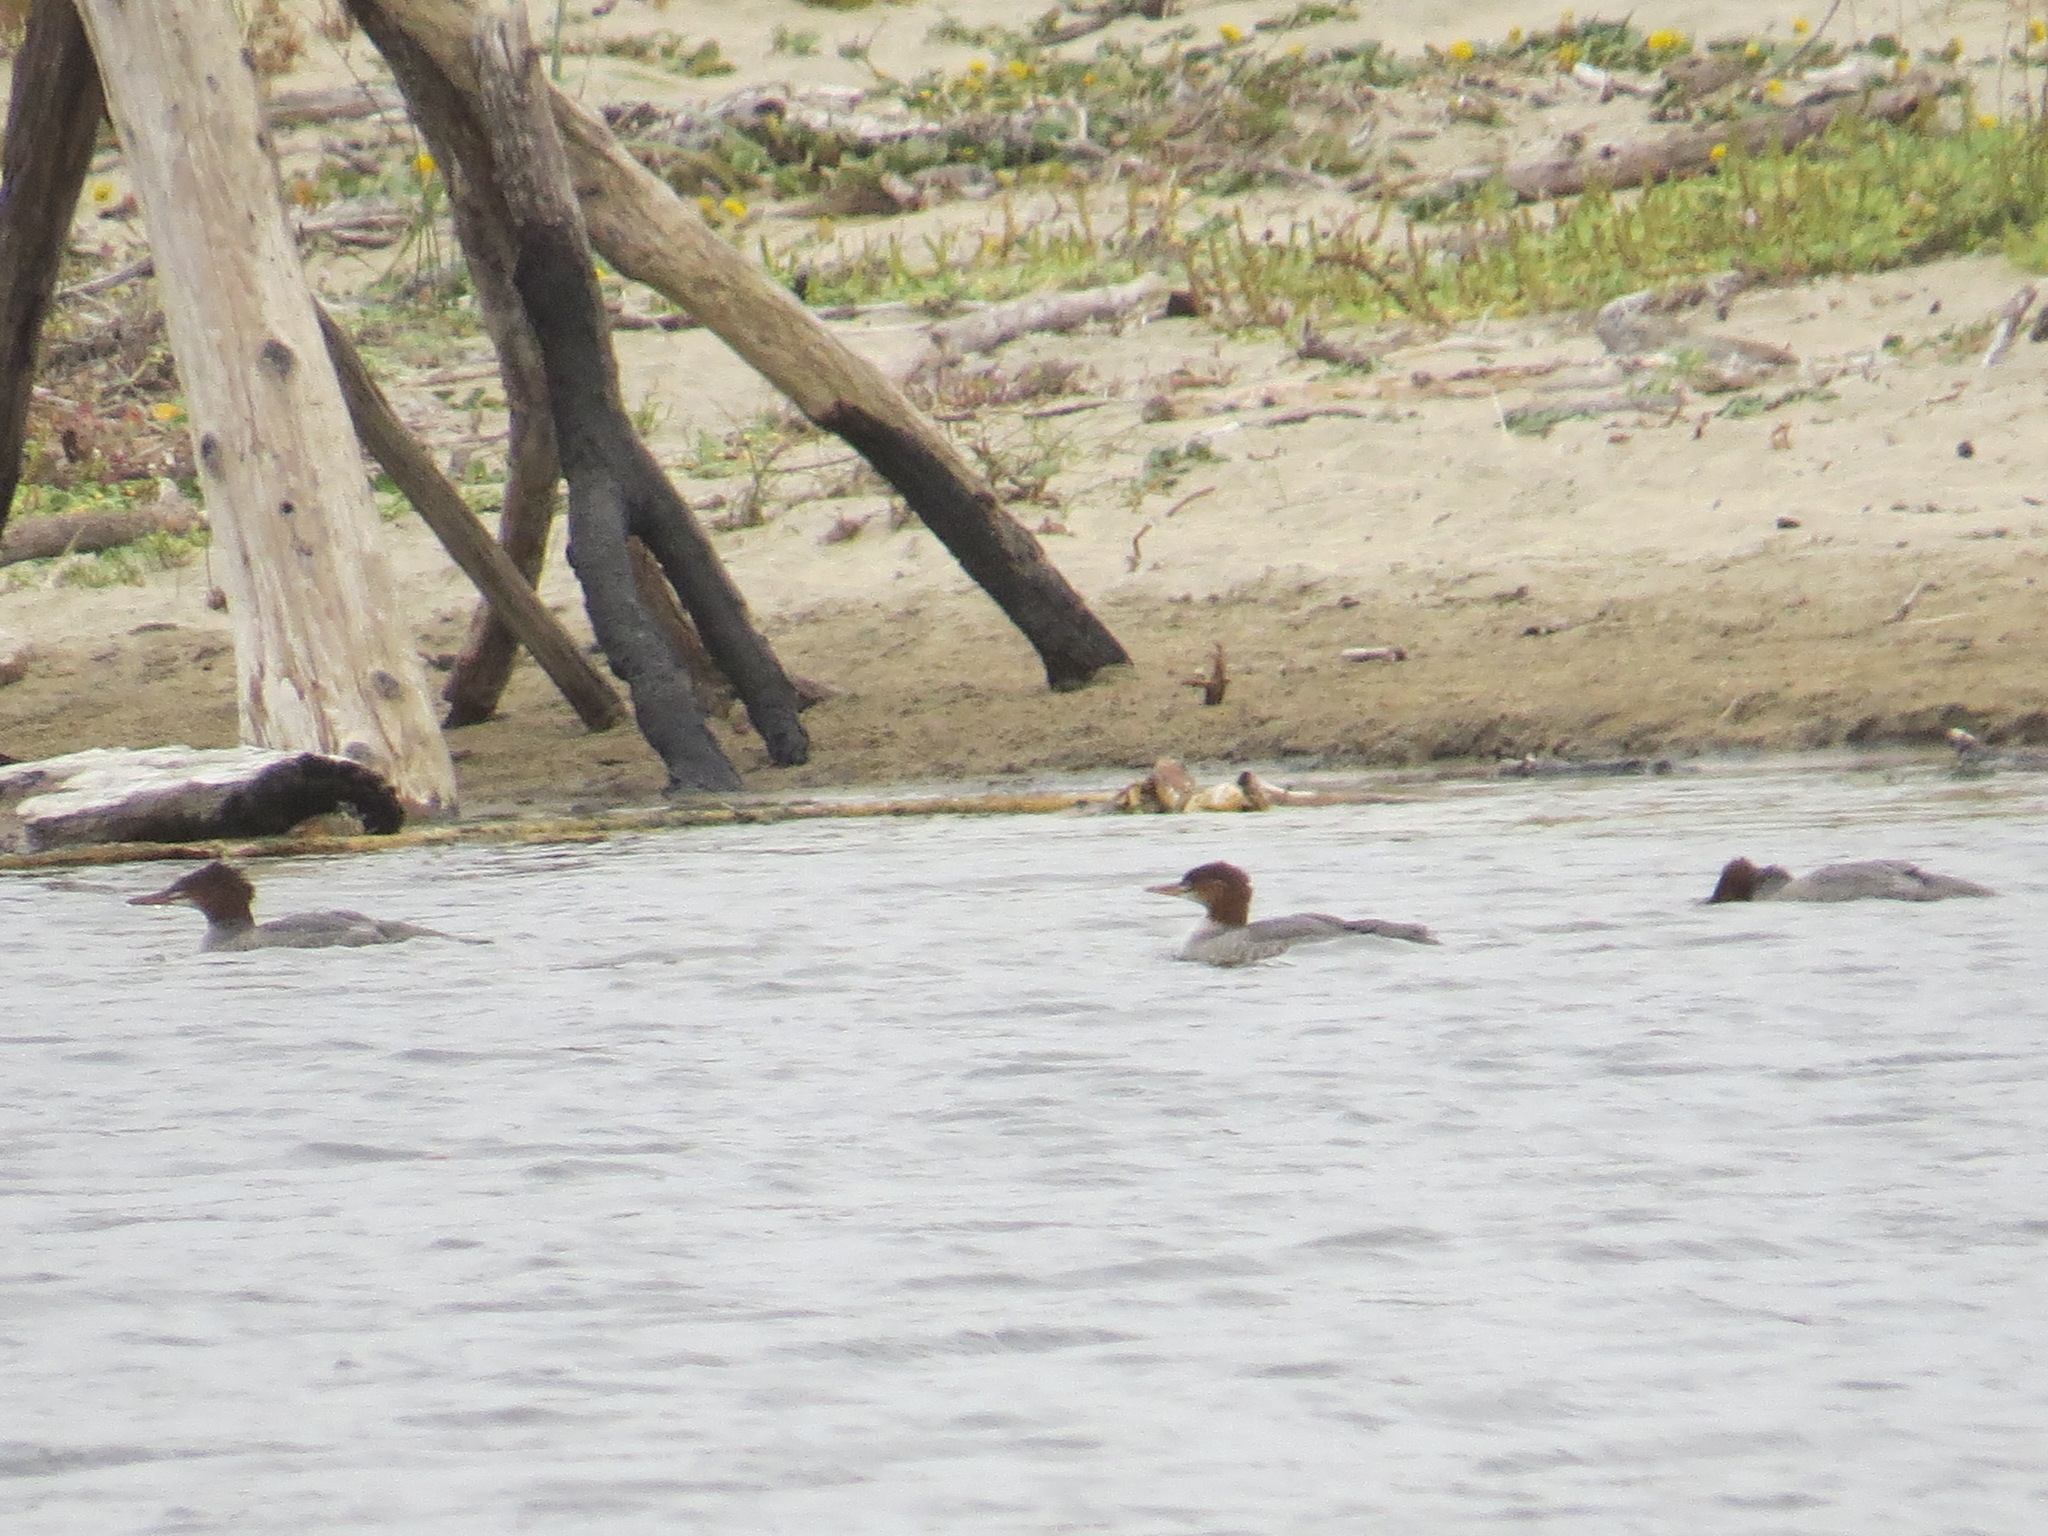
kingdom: Animalia
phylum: Chordata
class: Aves
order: Anseriformes
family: Anatidae
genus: Mergus
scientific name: Mergus merganser
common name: Common merganser
